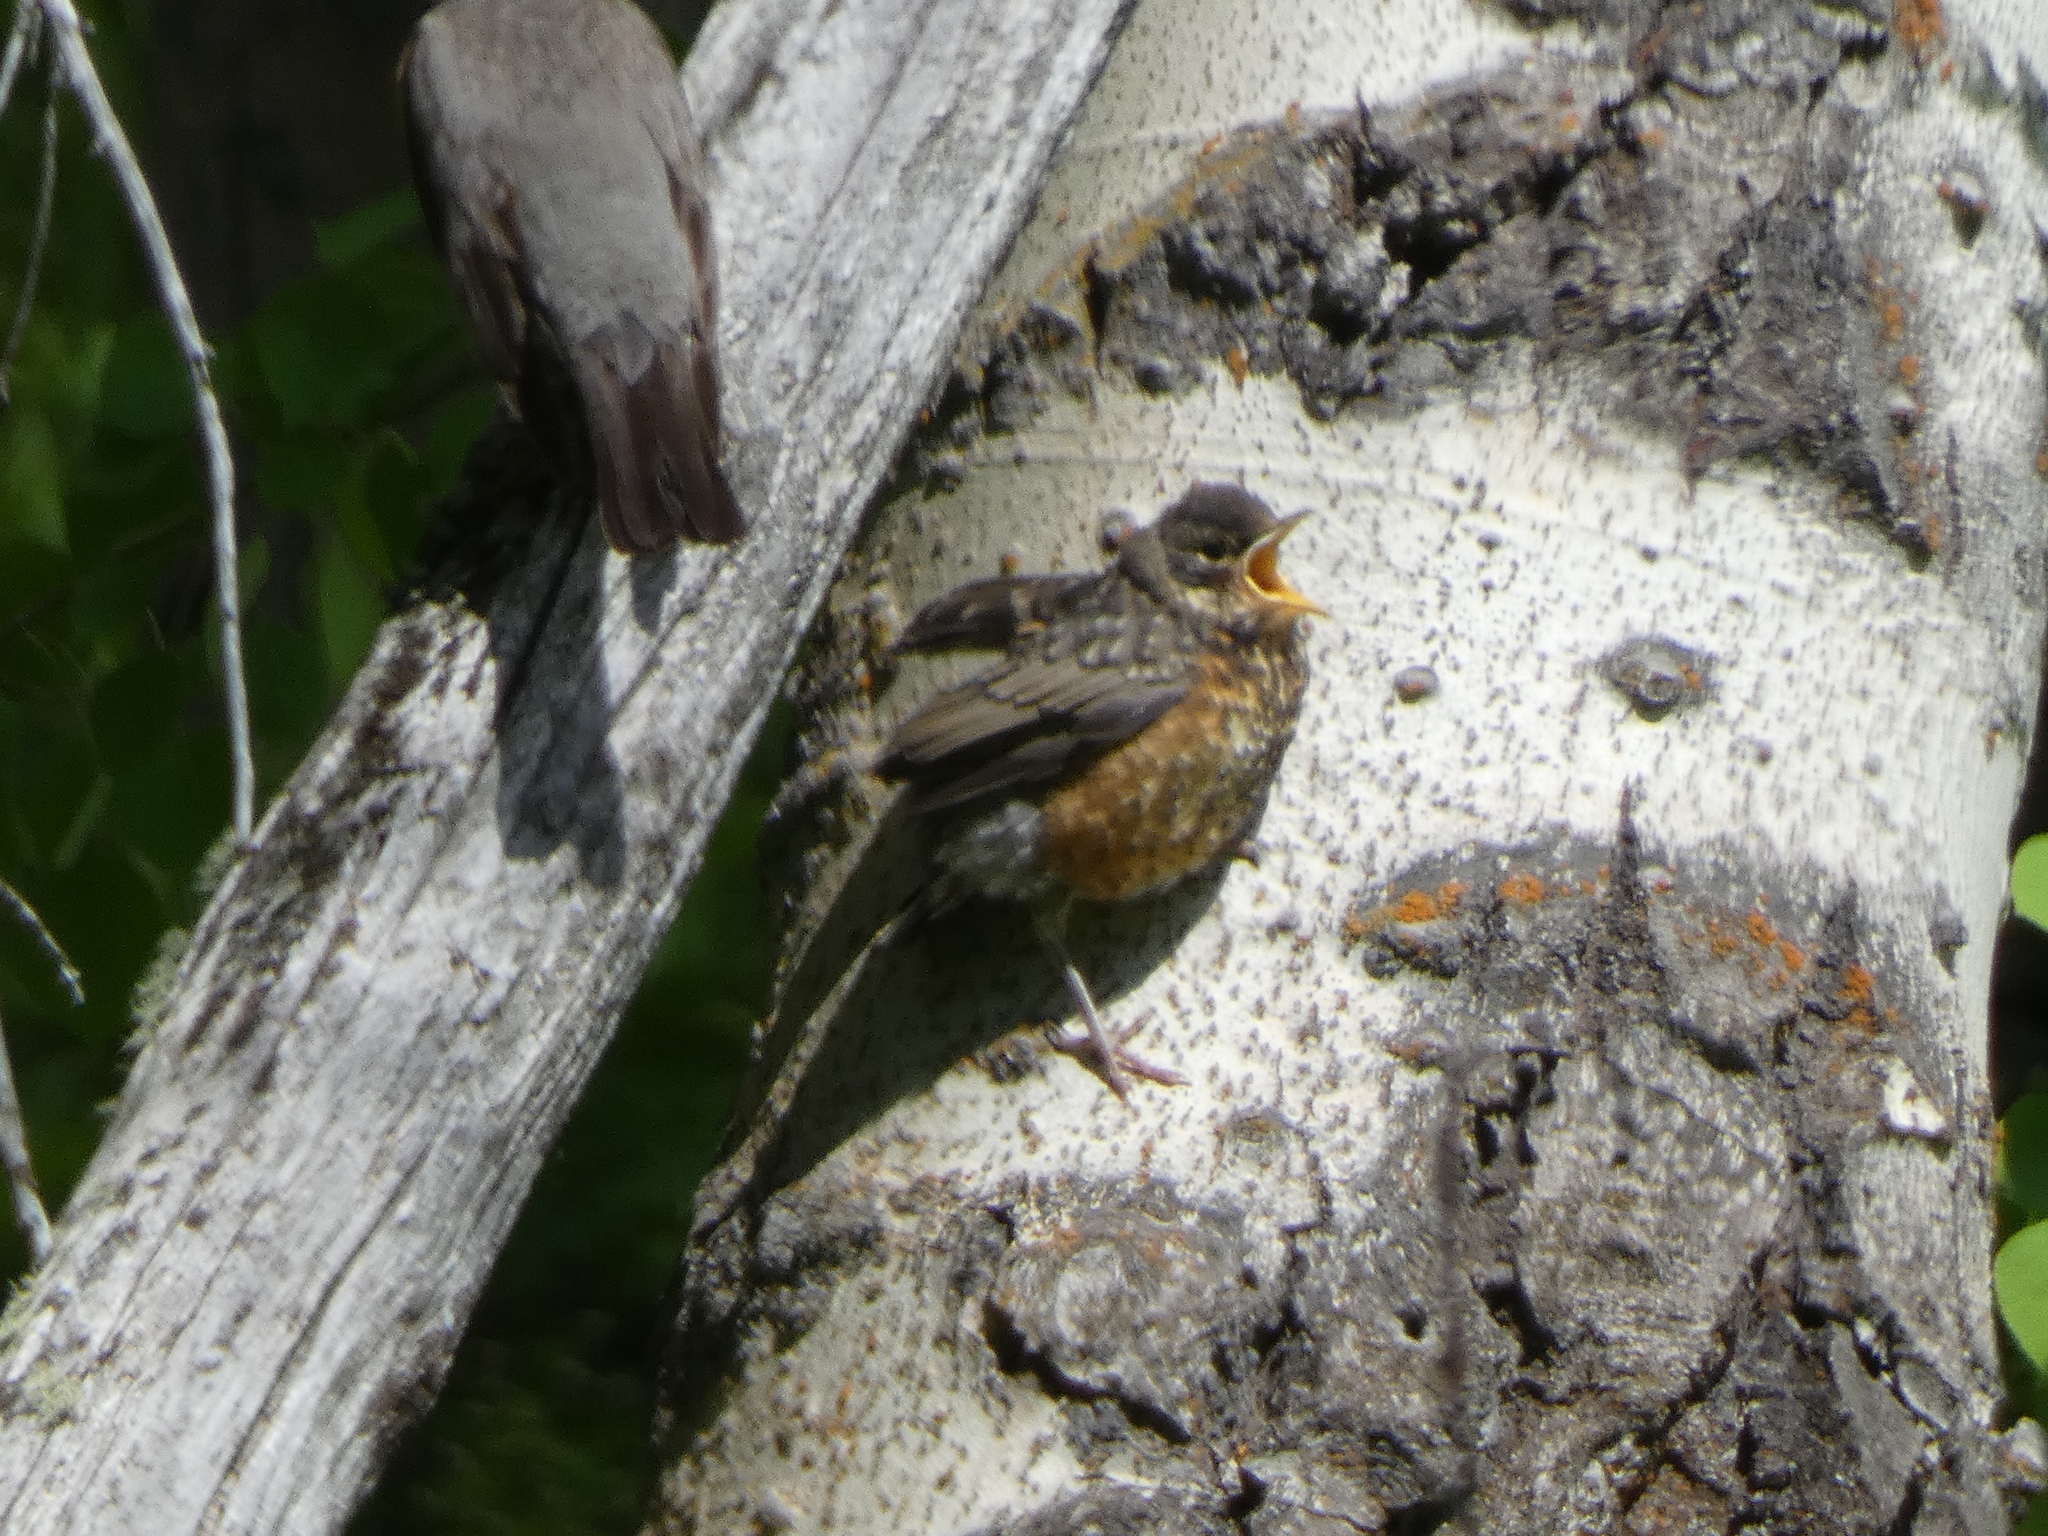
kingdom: Animalia
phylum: Chordata
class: Aves
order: Passeriformes
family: Turdidae
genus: Turdus
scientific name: Turdus migratorius
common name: American robin
